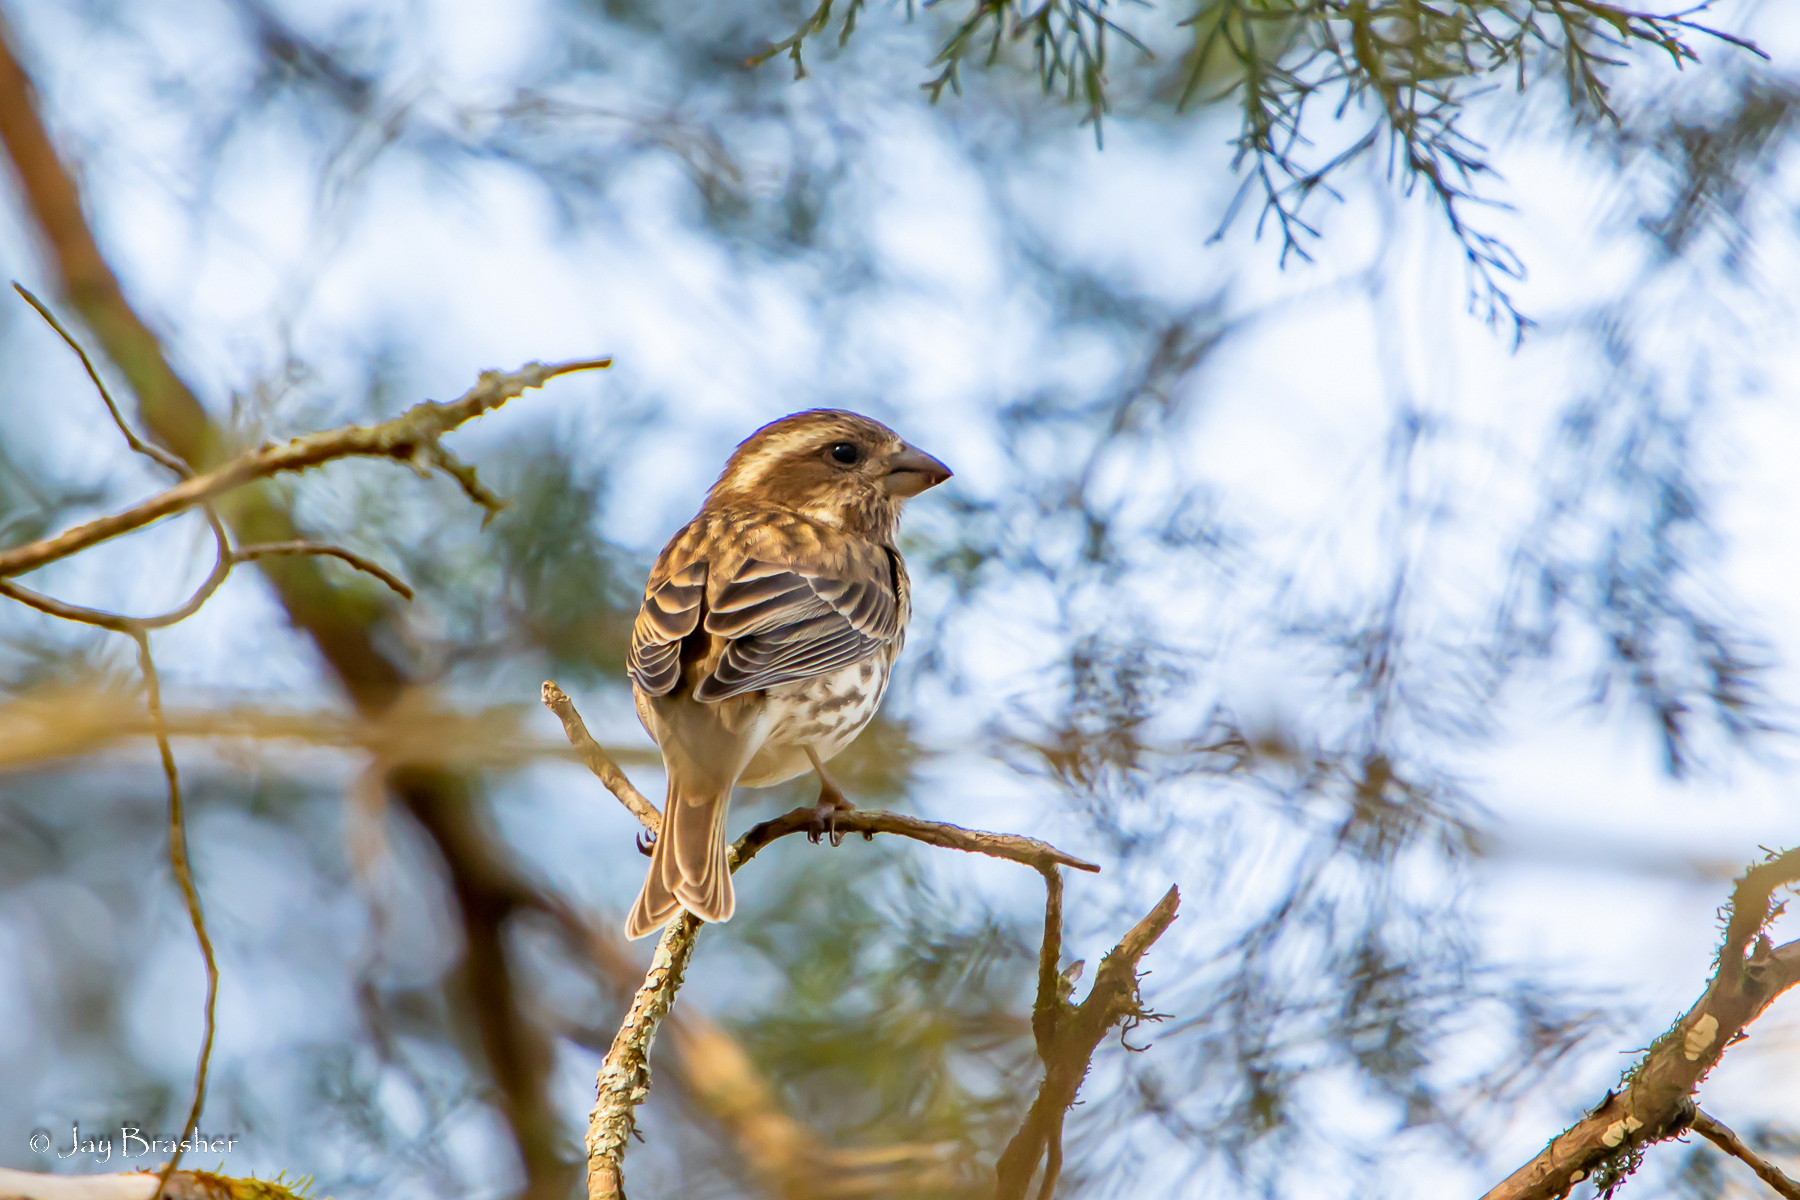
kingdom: Animalia
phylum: Chordata
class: Aves
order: Passeriformes
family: Fringillidae
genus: Haemorhous
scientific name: Haemorhous purpureus
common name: Purple finch
